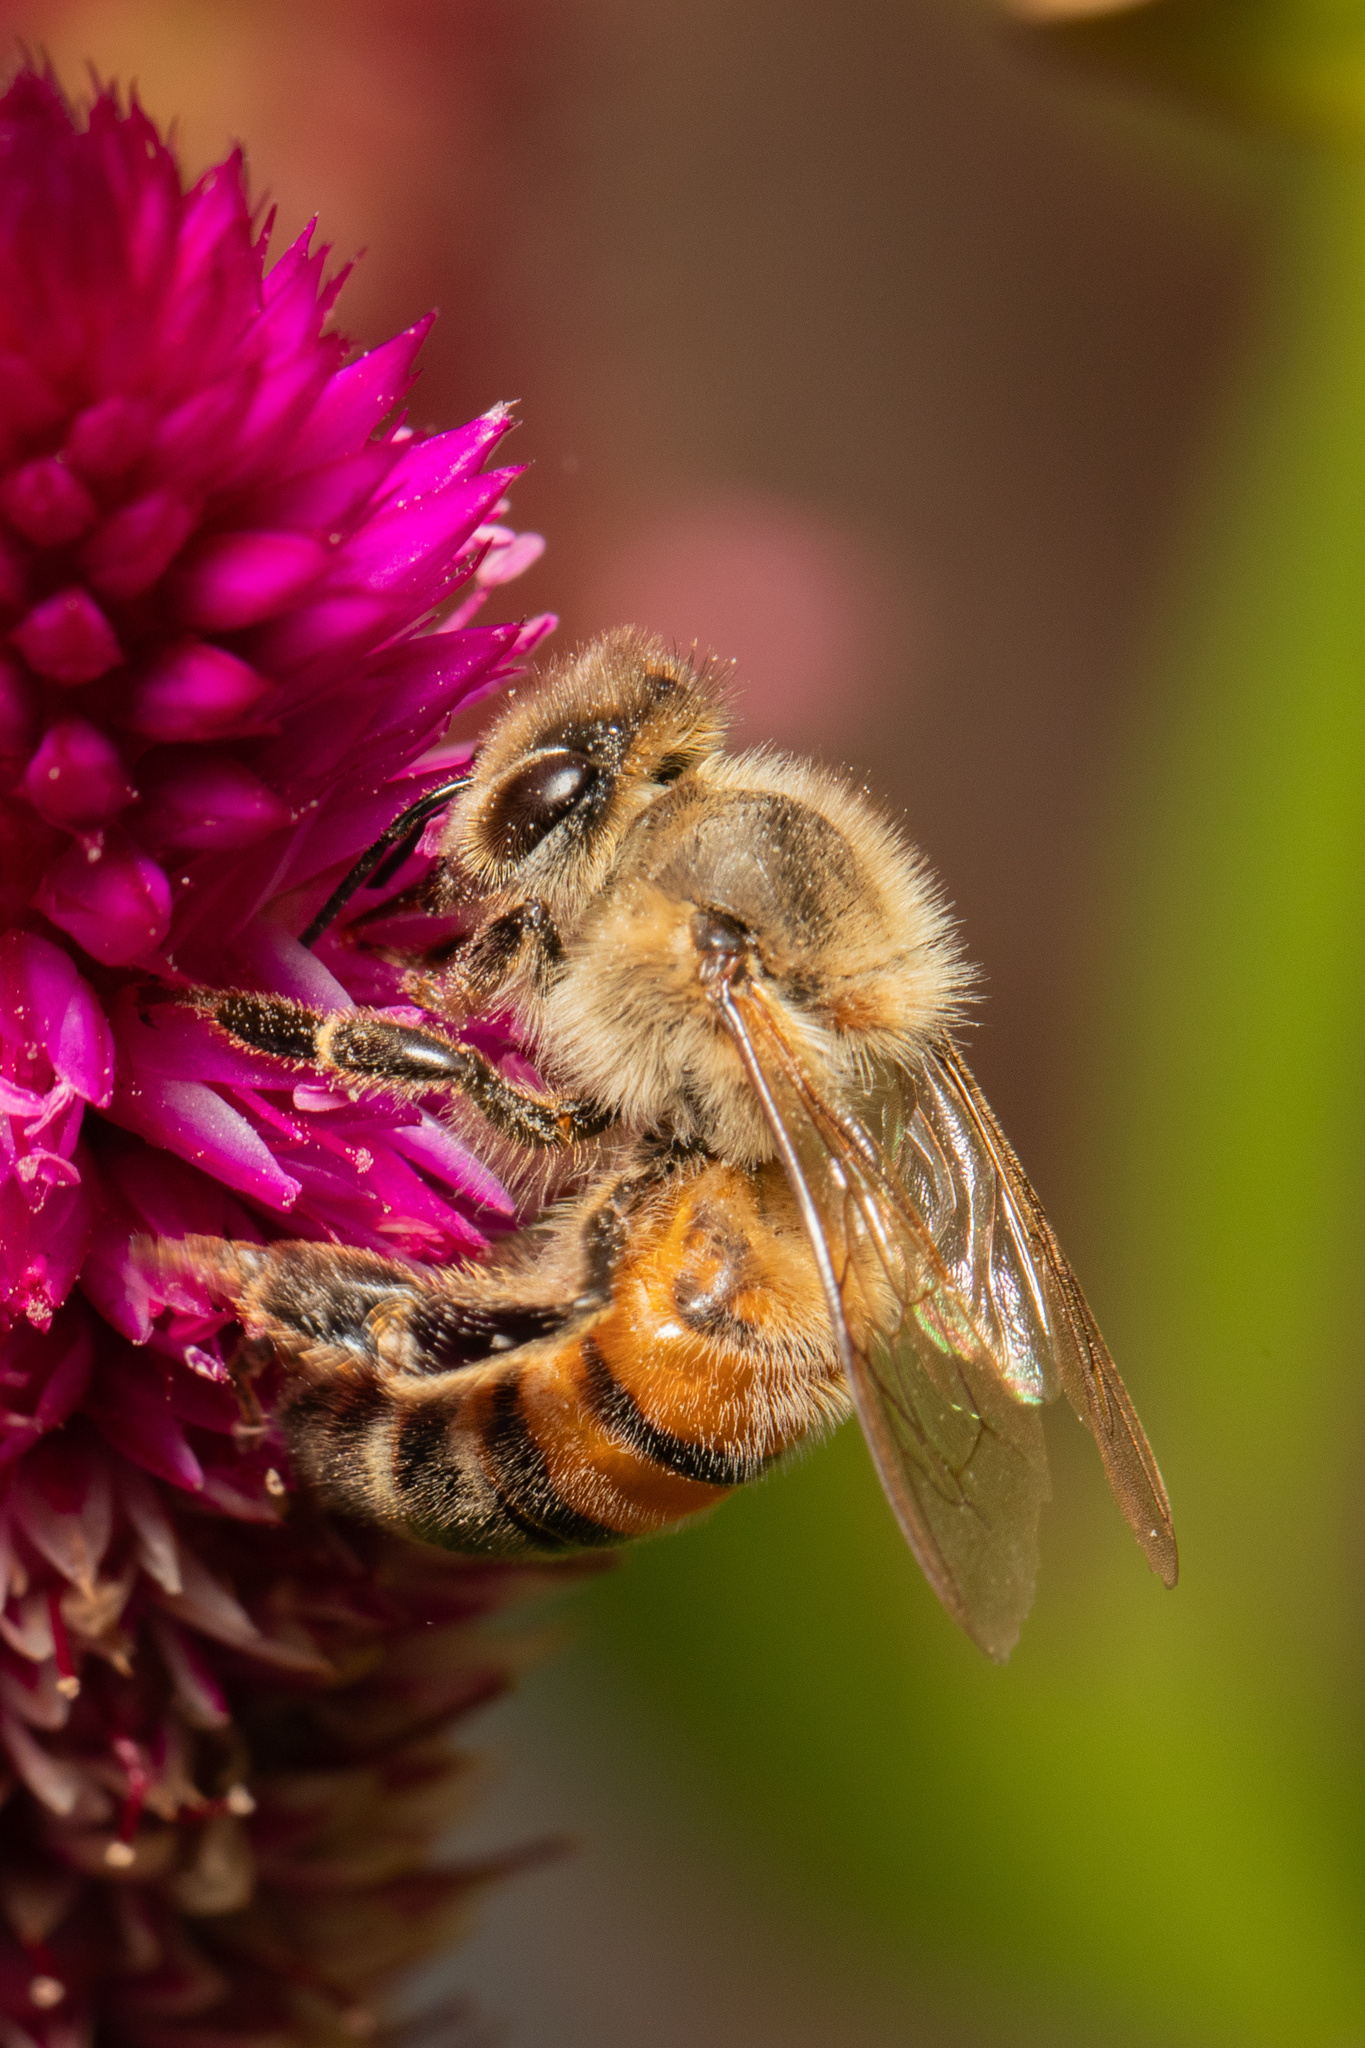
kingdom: Animalia
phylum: Arthropoda
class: Insecta
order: Hymenoptera
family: Apidae
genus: Apis
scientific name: Apis mellifera
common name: Honey bee
